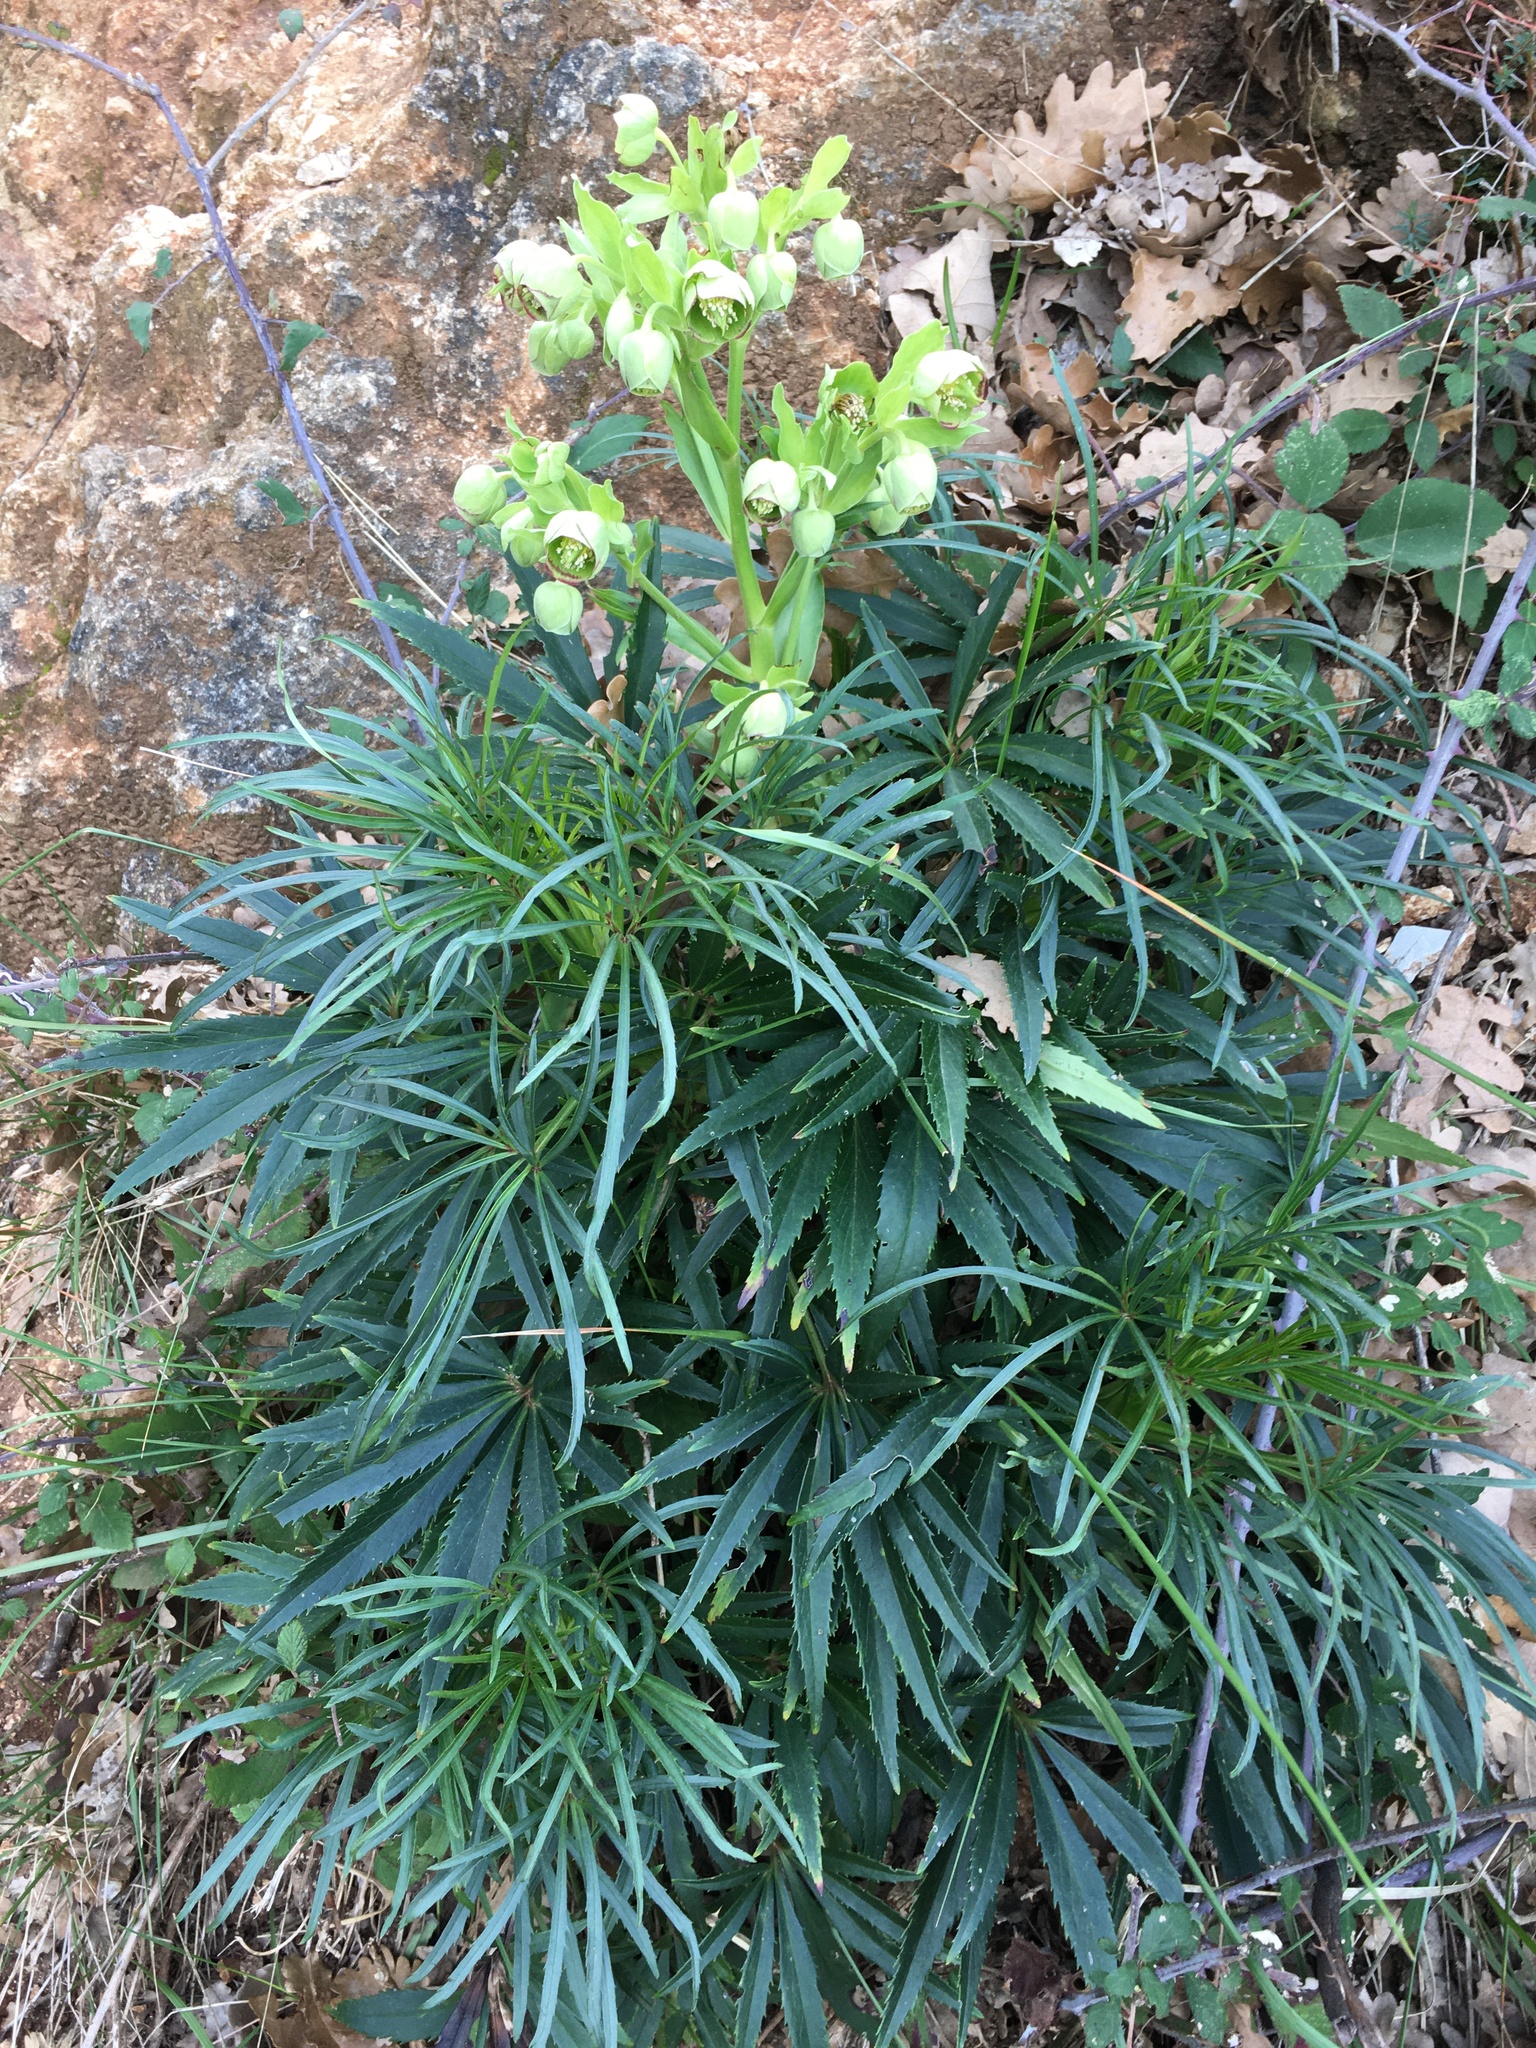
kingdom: Plantae
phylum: Tracheophyta
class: Magnoliopsida
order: Ranunculales
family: Ranunculaceae
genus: Helleborus
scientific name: Helleborus foetidus
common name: Stinking hellebore
